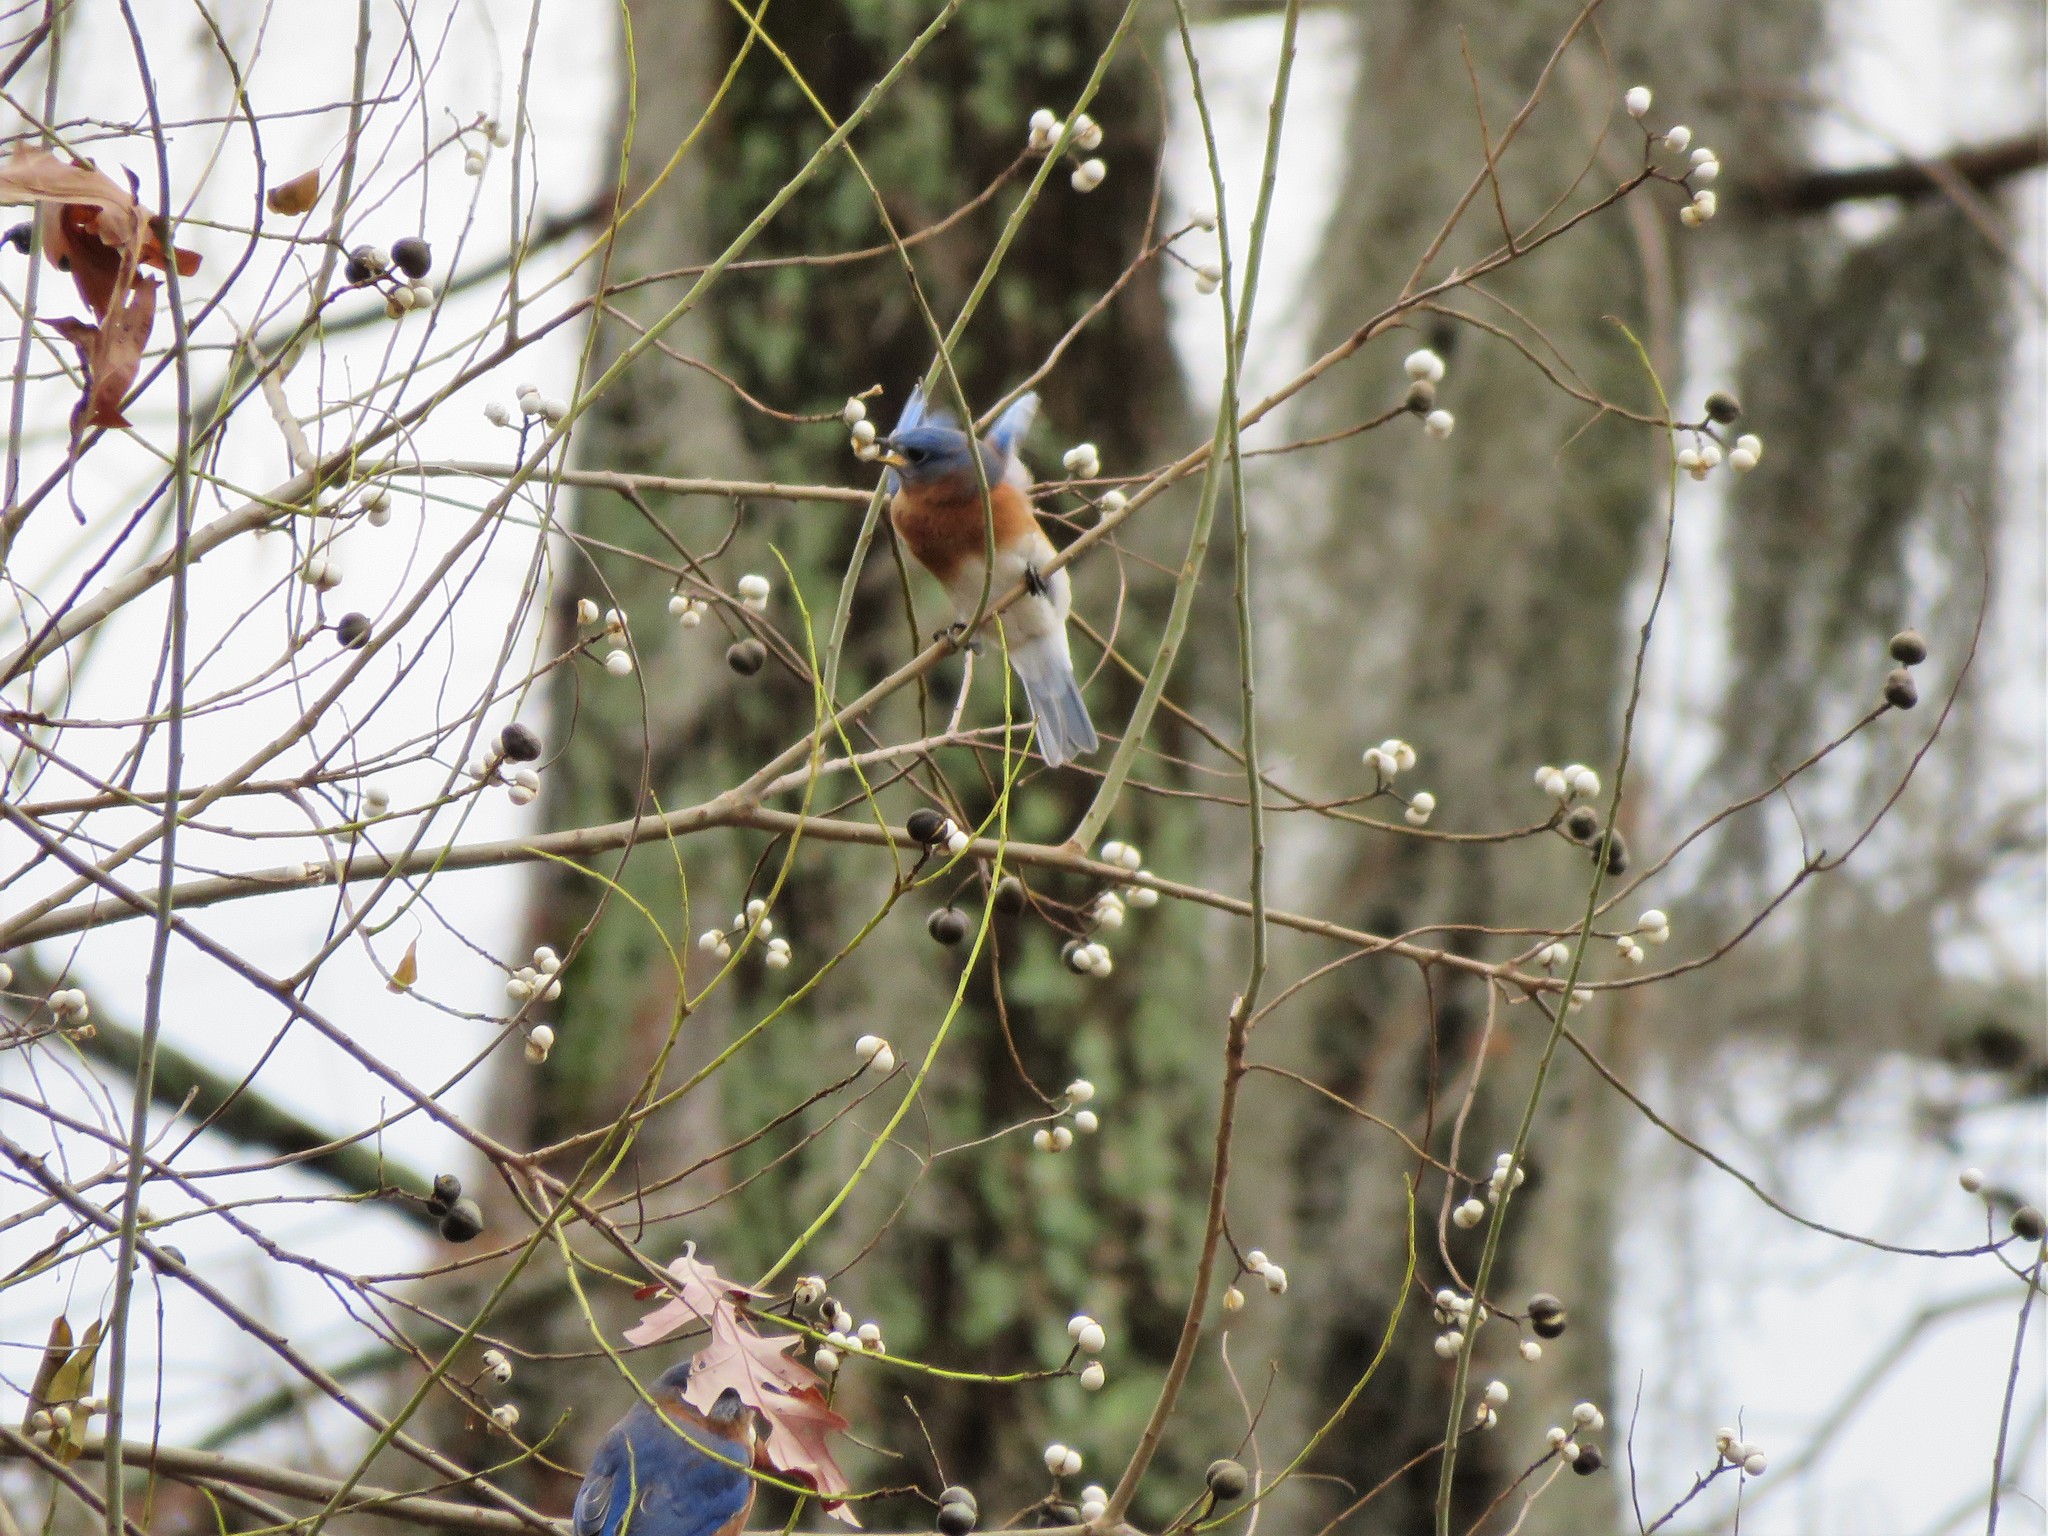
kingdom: Animalia
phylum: Chordata
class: Aves
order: Passeriformes
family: Turdidae
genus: Sialia
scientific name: Sialia sialis
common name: Eastern bluebird
